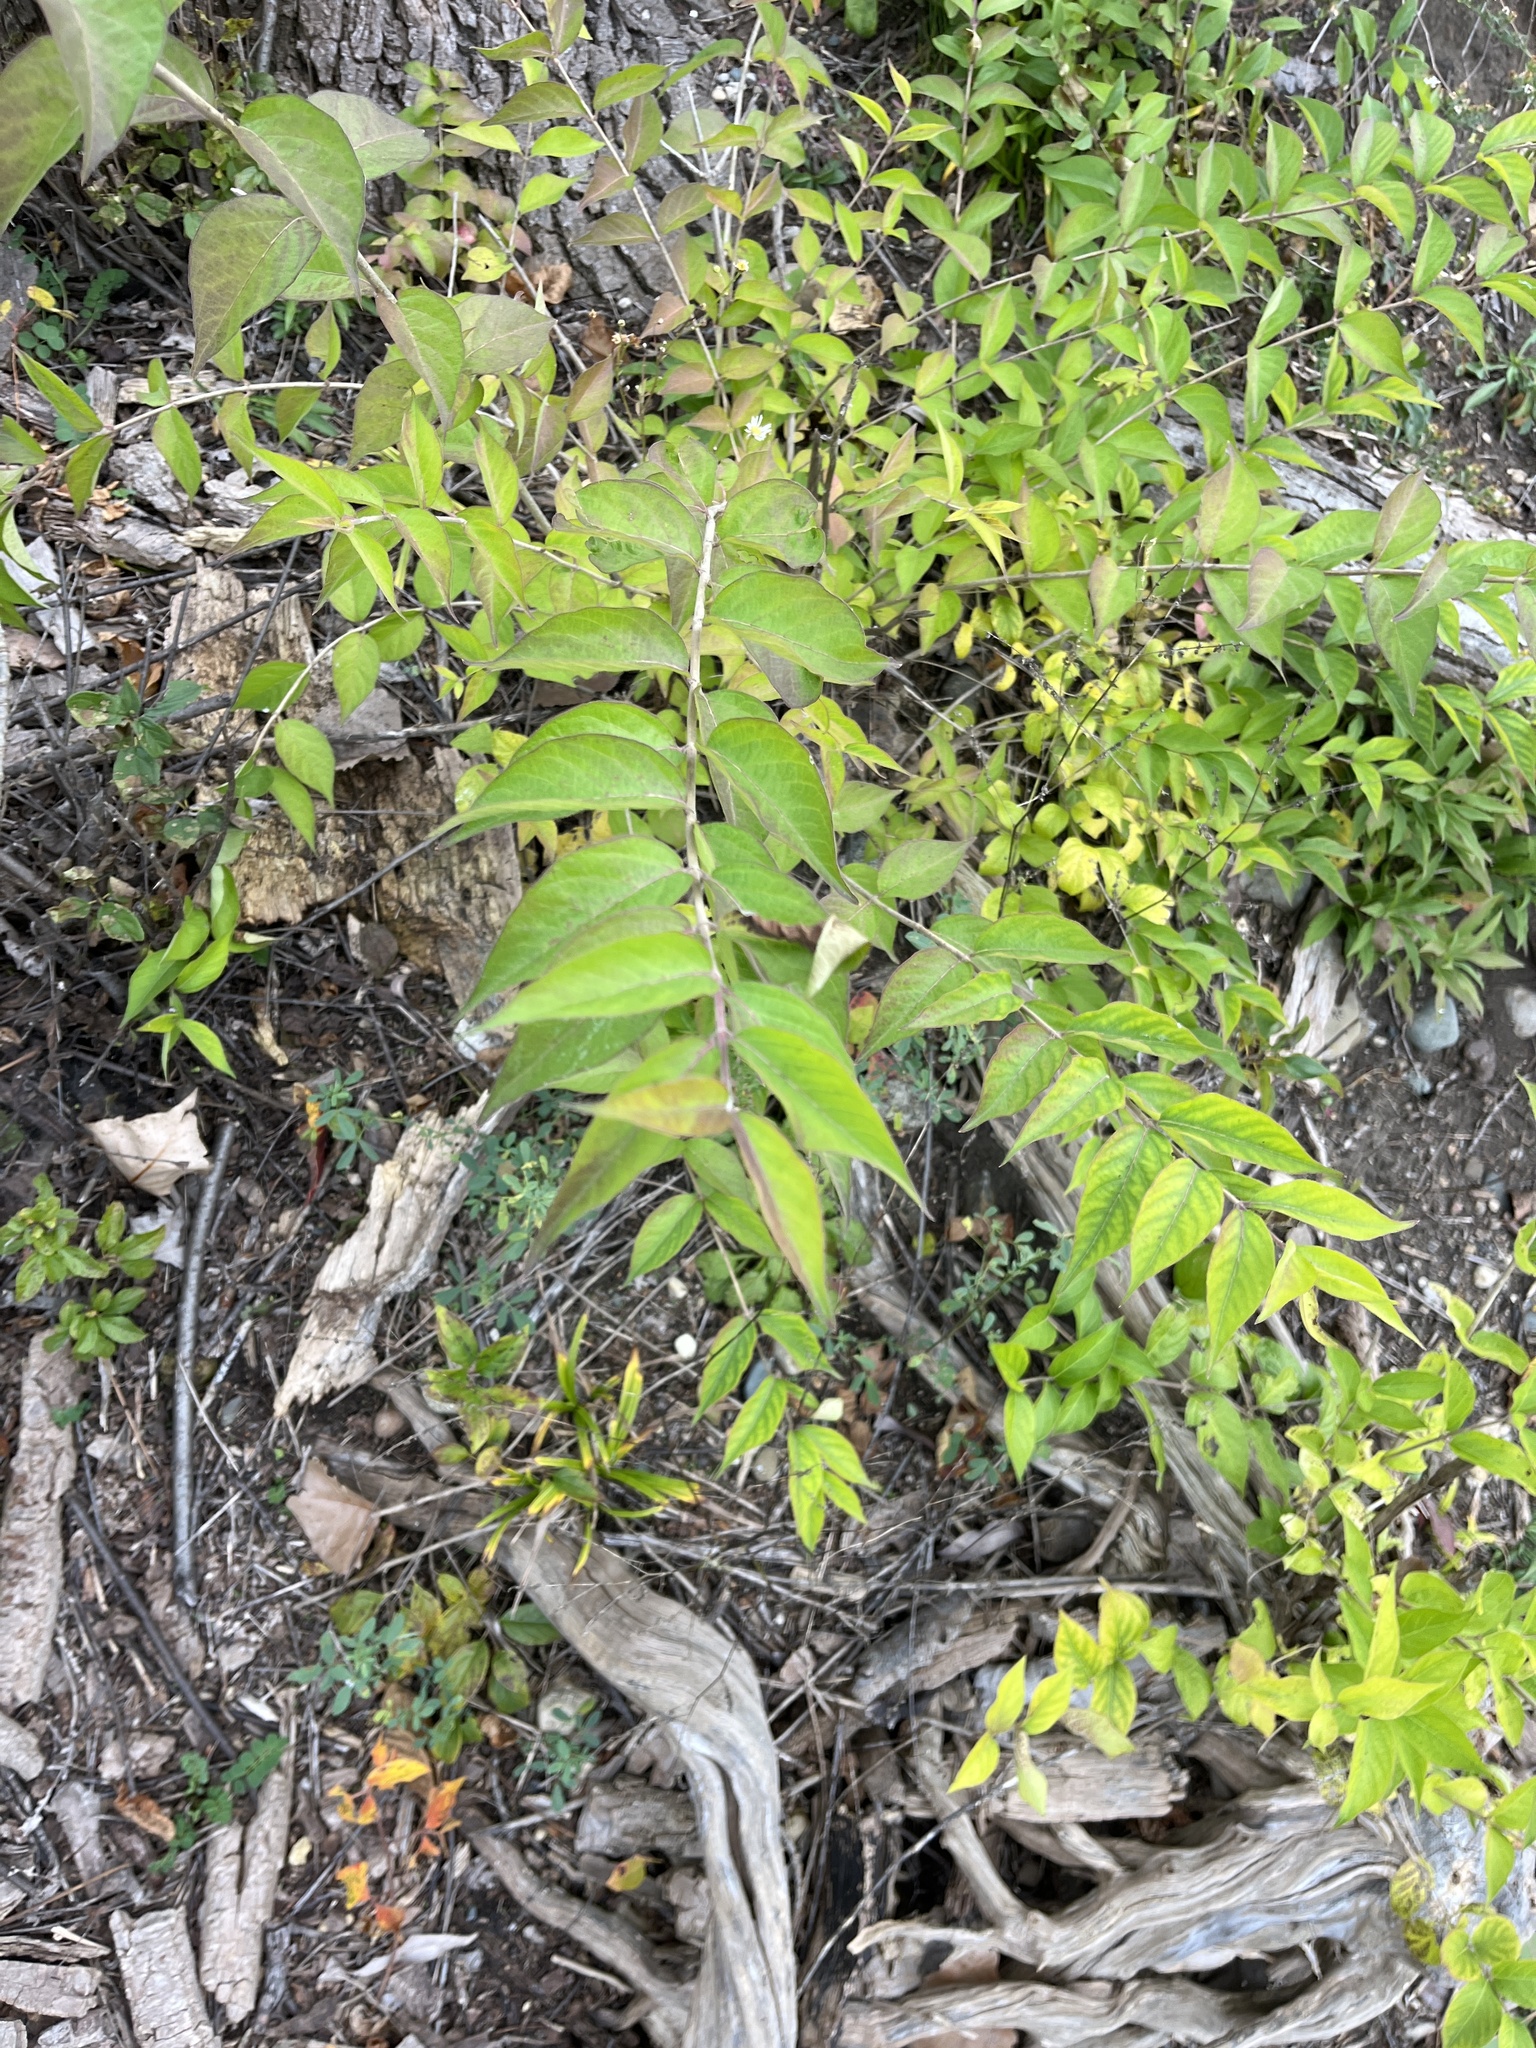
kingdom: Plantae
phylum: Tracheophyta
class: Magnoliopsida
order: Dipsacales
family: Caprifoliaceae
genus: Lonicera
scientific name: Lonicera maackii
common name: Amur honeysuckle
